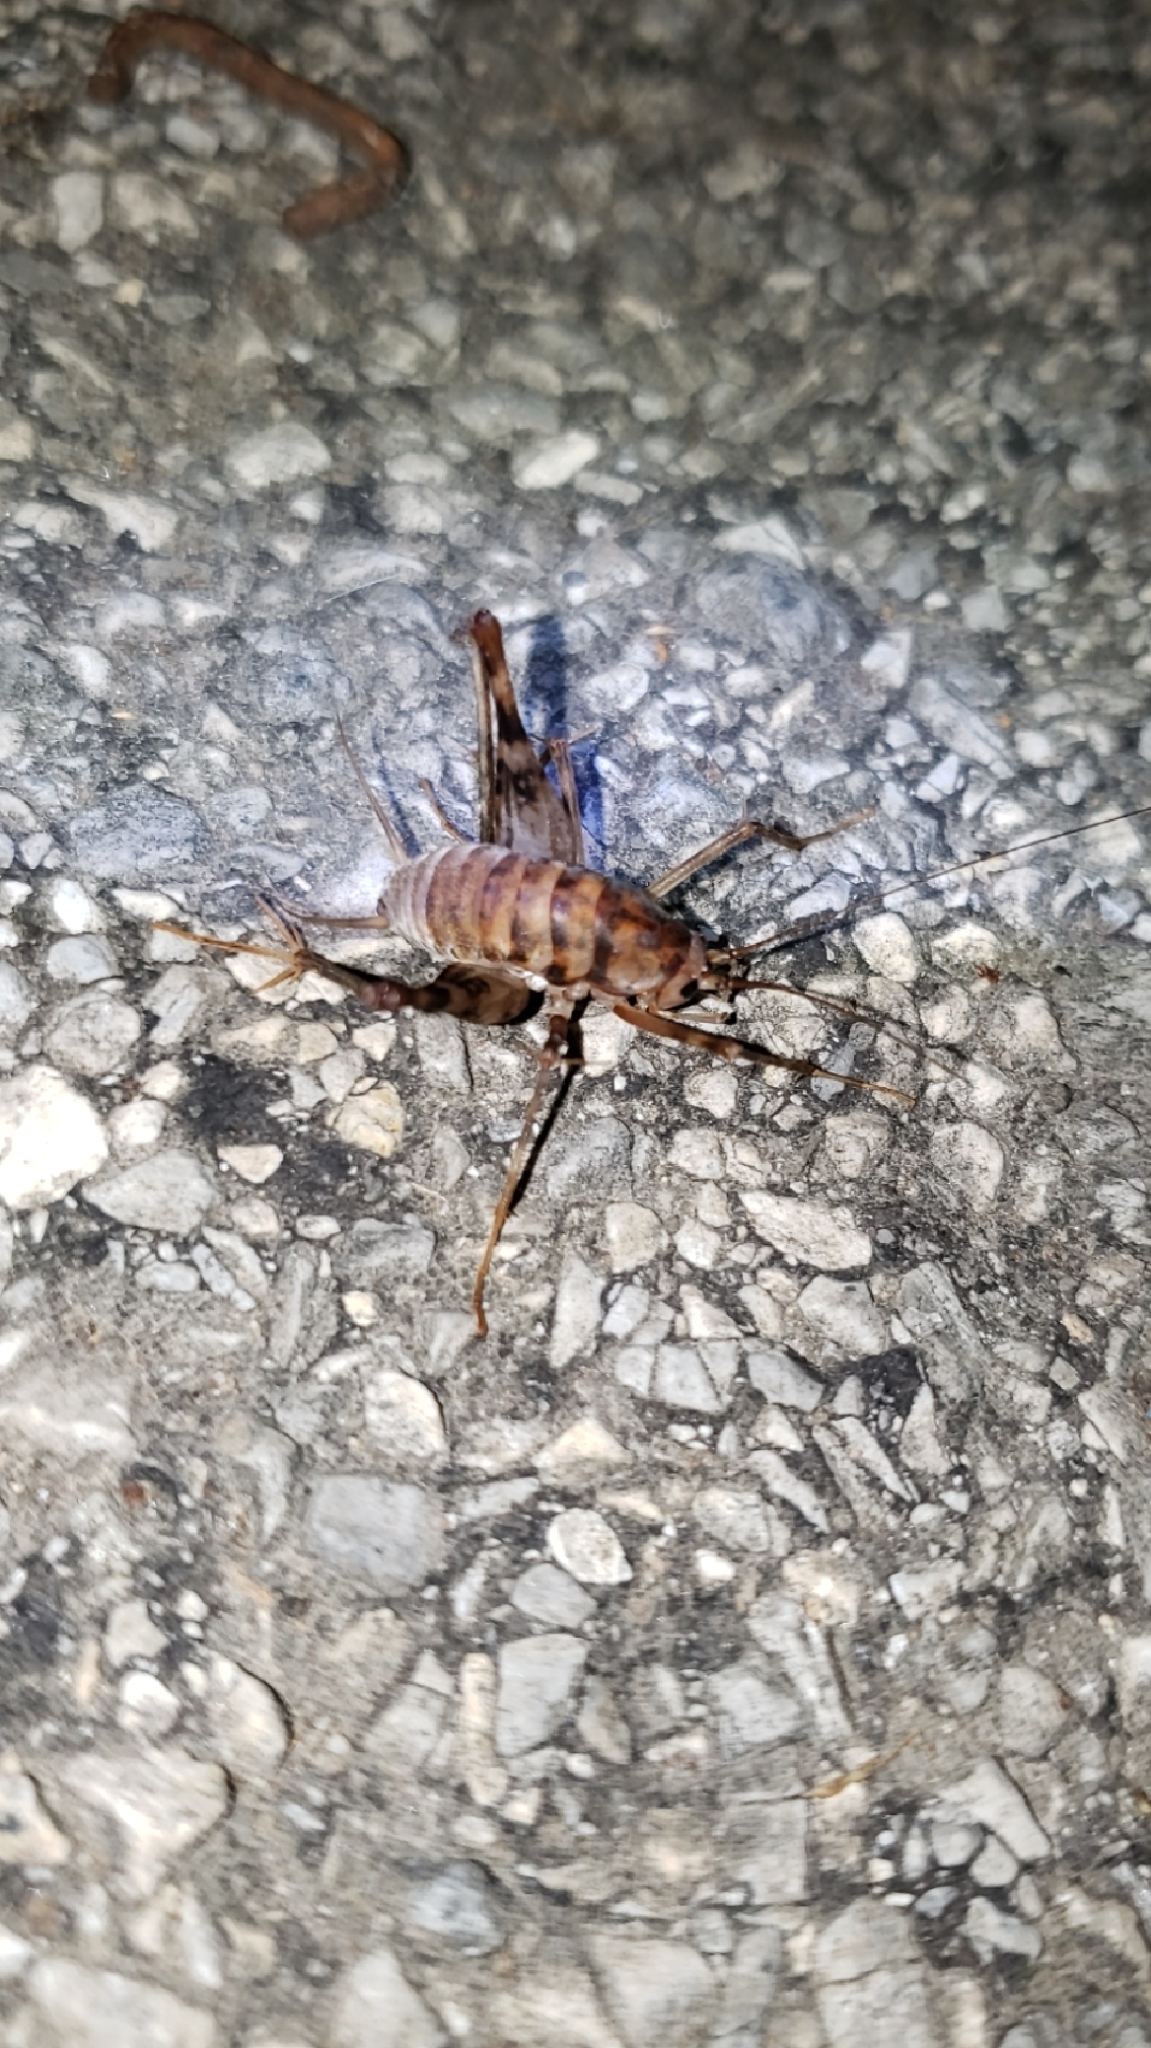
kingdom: Animalia
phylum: Arthropoda
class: Insecta
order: Orthoptera
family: Rhaphidophoridae
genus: Tachycines
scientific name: Tachycines asynamorus
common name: Greenhouse camel cricket
